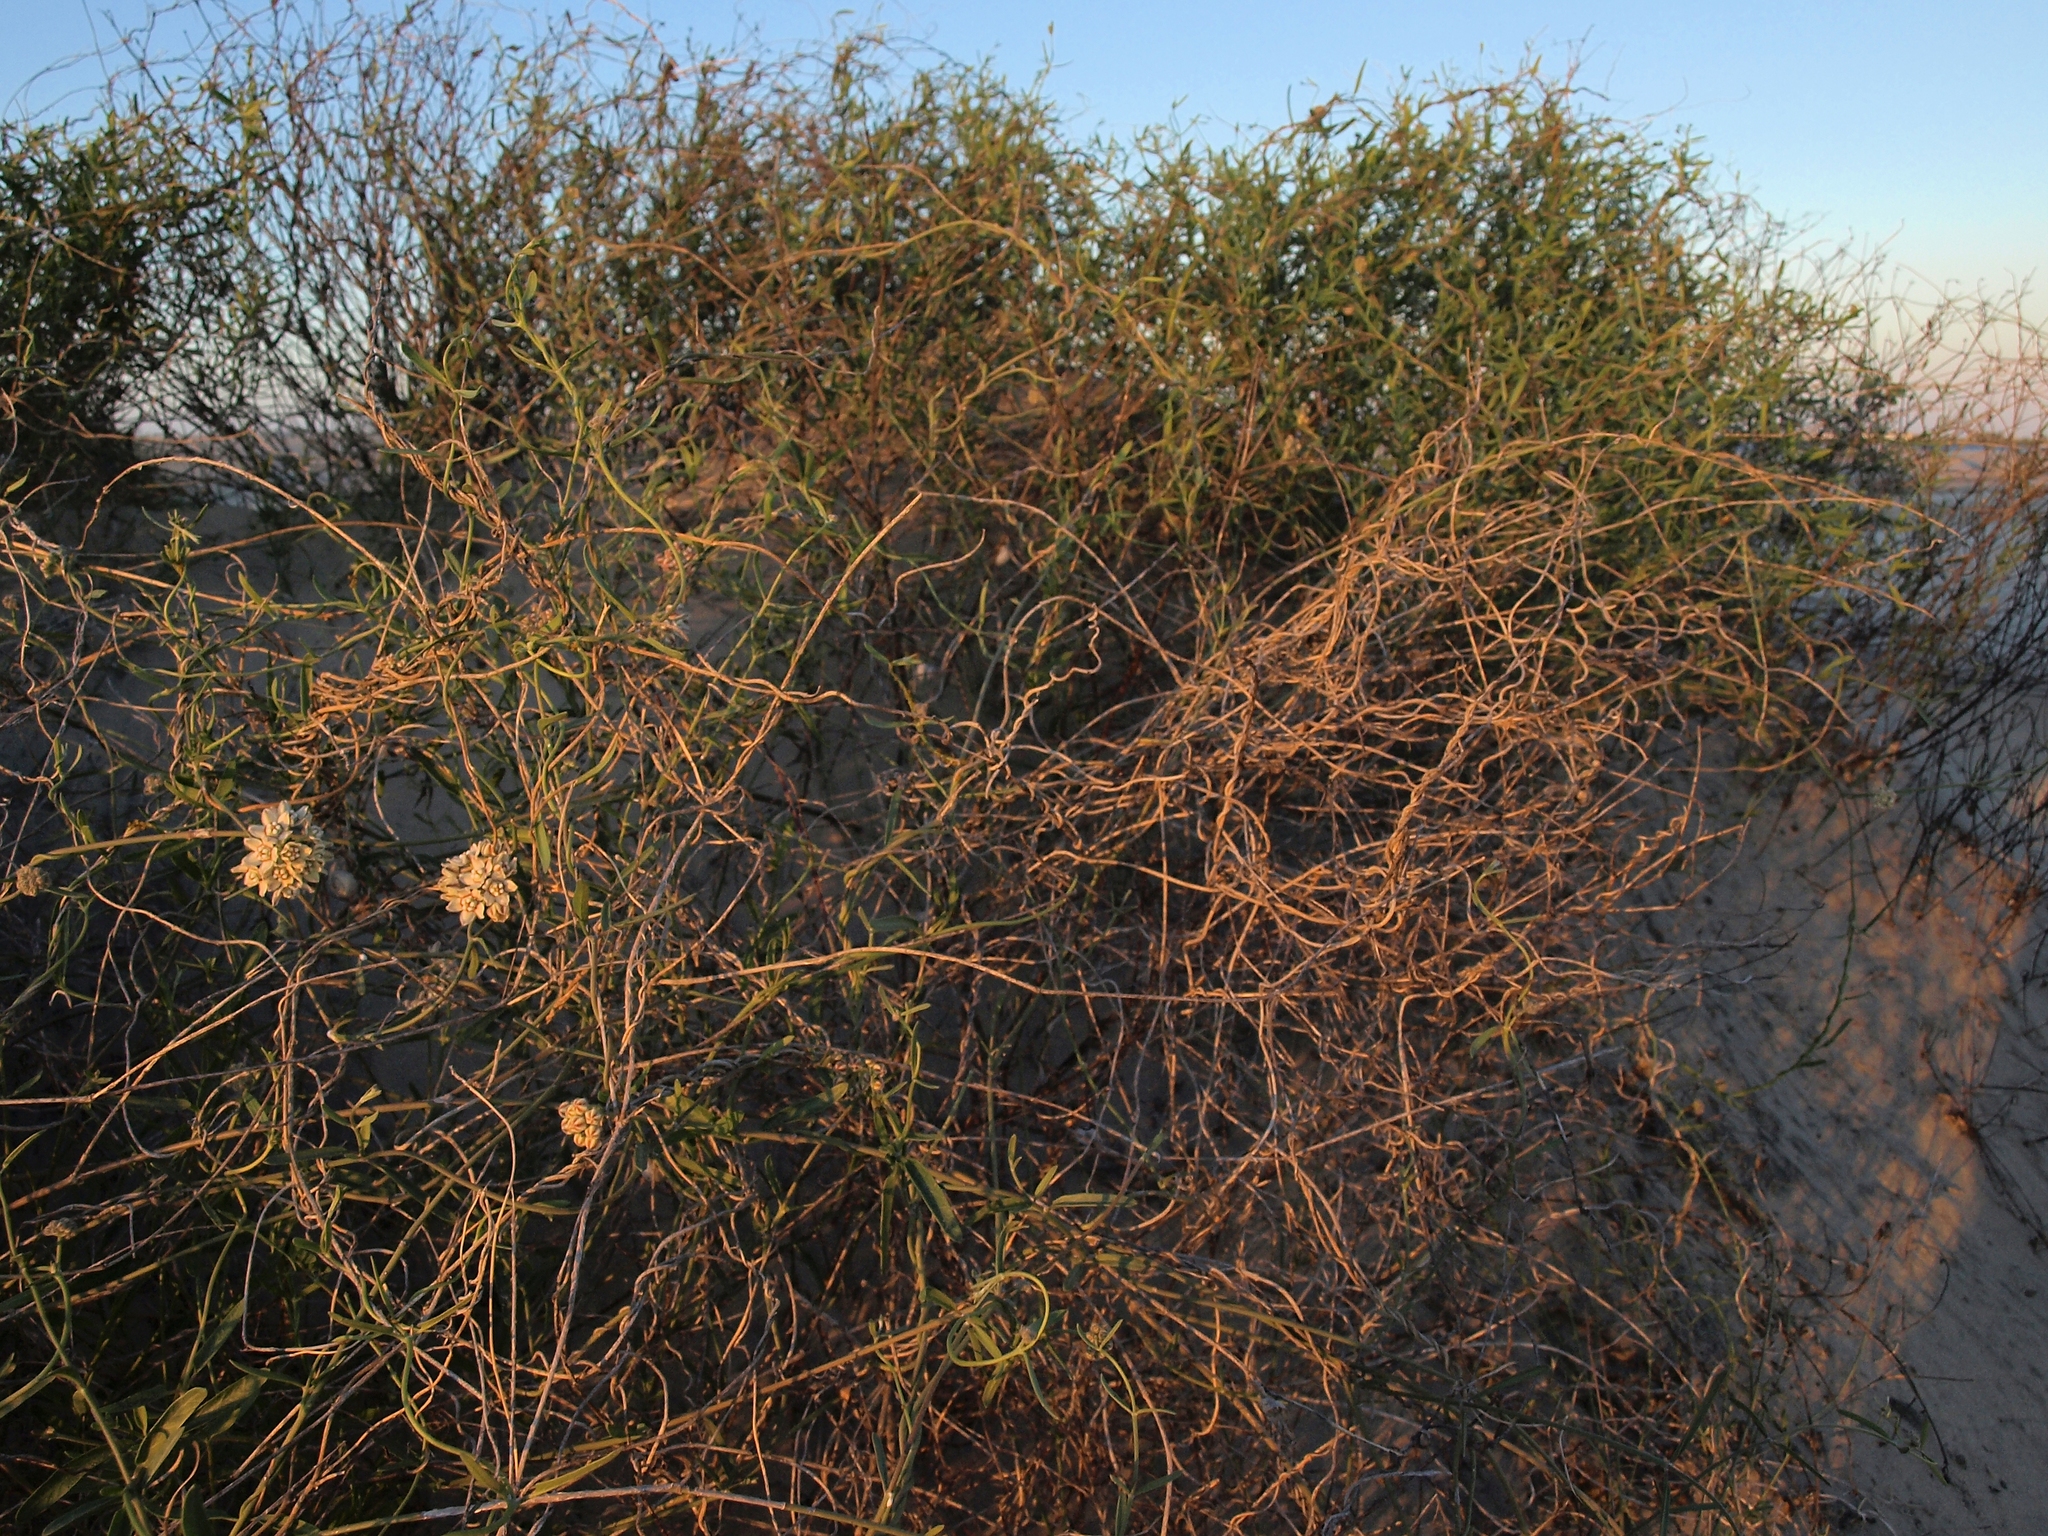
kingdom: Plantae
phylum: Tracheophyta
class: Magnoliopsida
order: Gentianales
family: Apocynaceae
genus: Funastrum
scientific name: Funastrum arenarium
